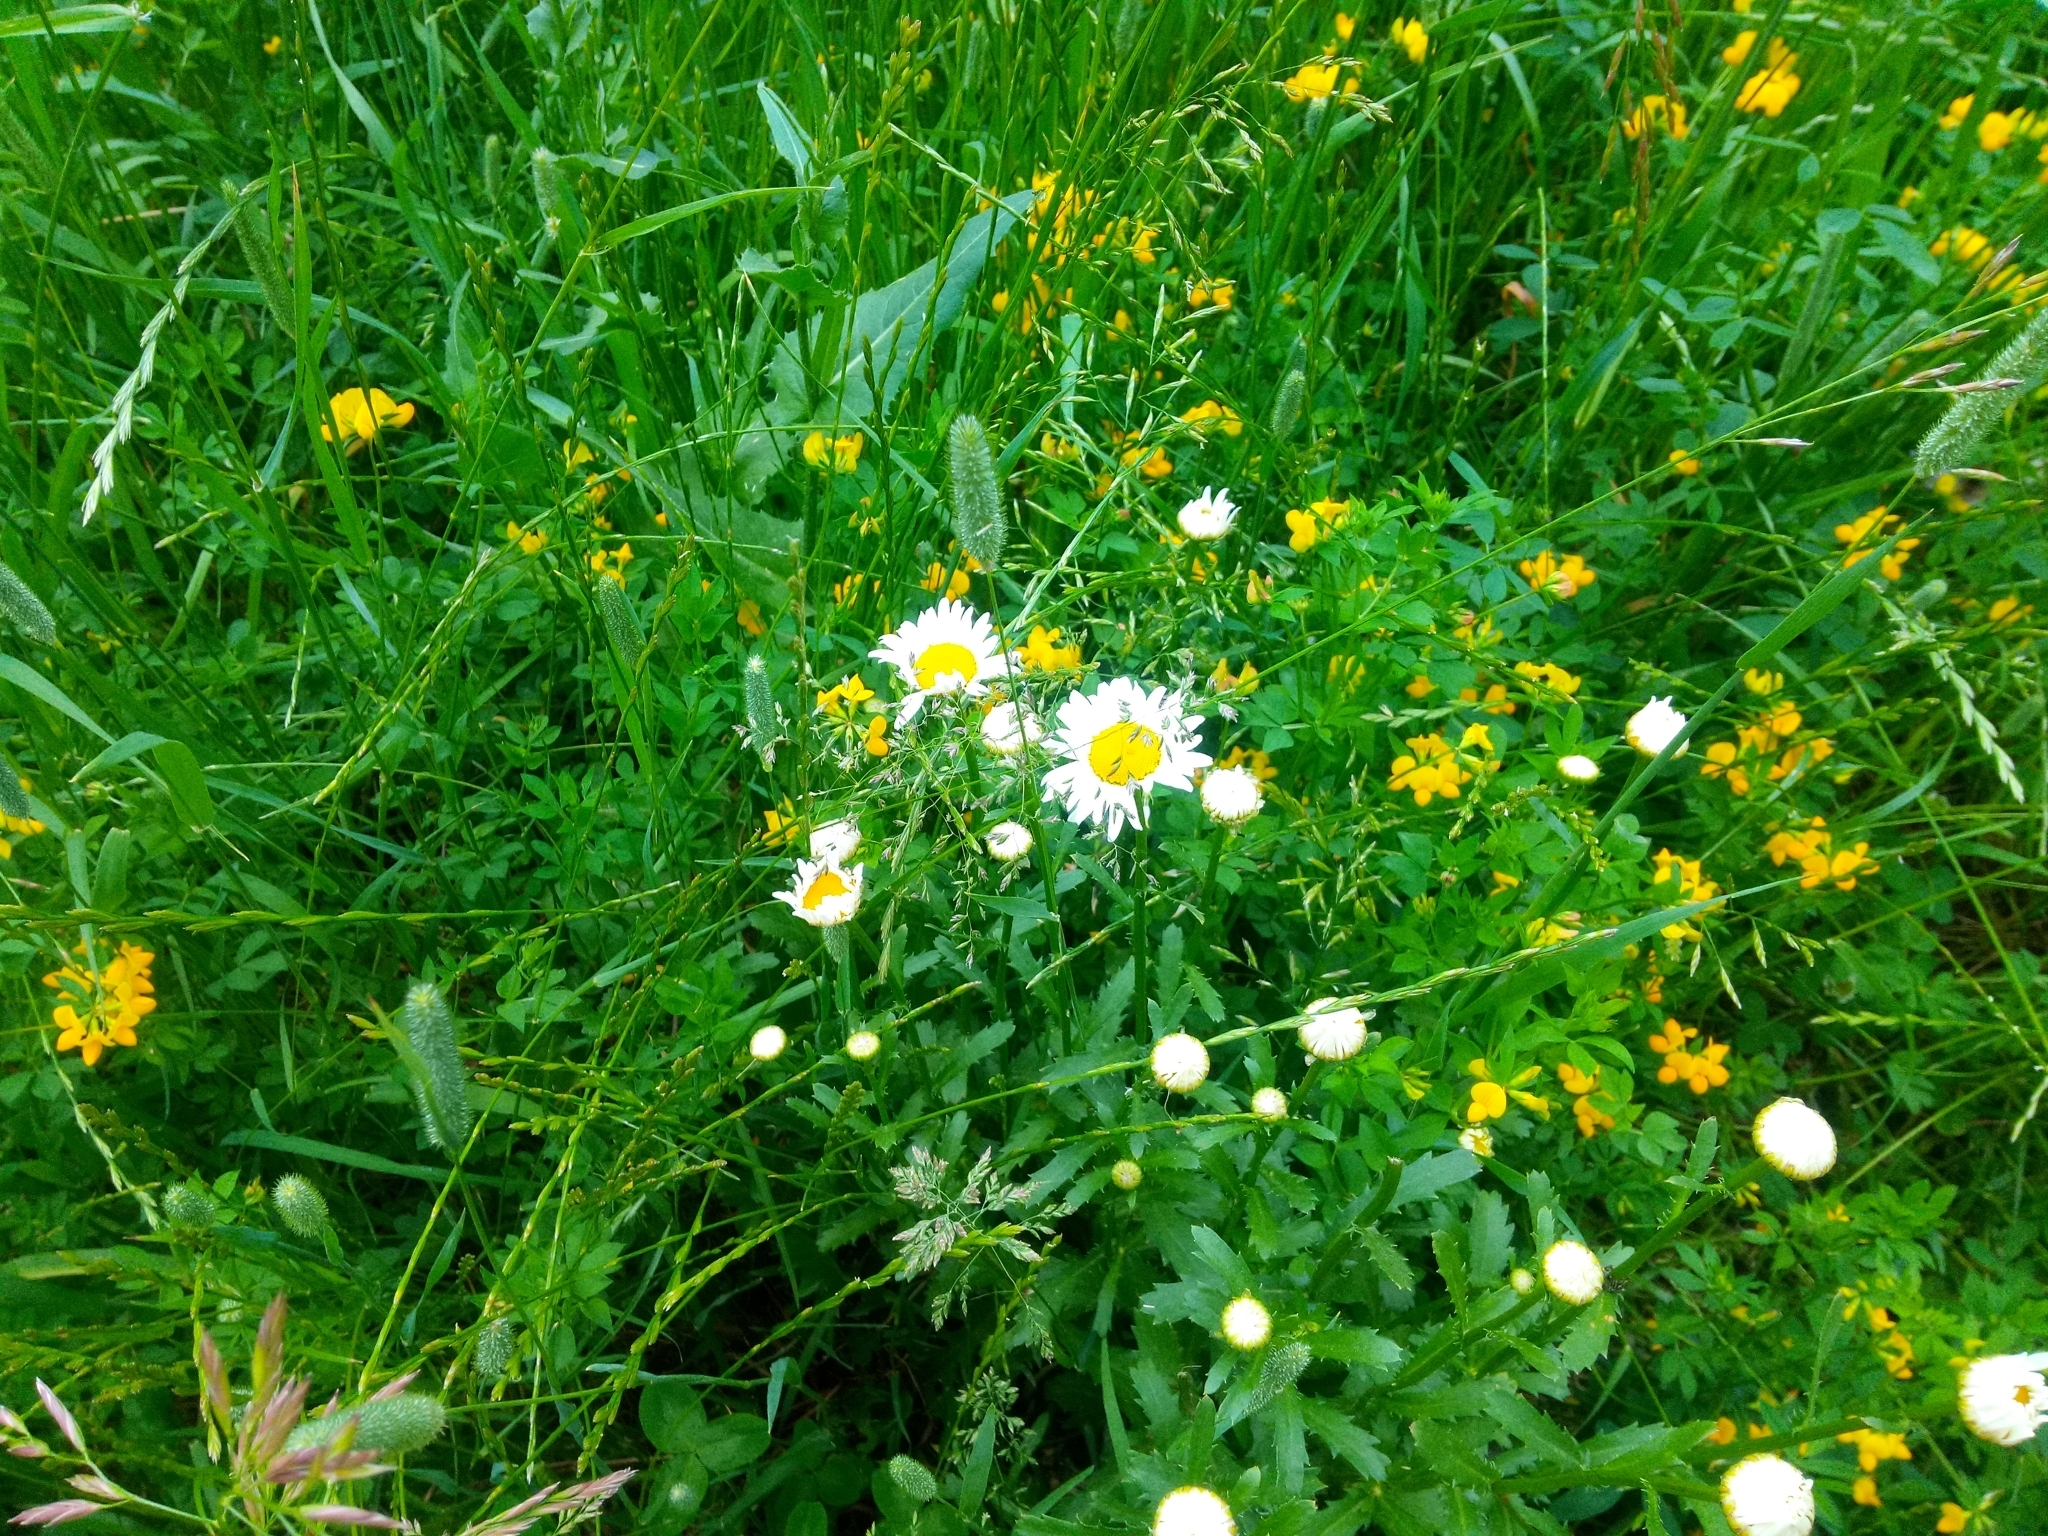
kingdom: Plantae
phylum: Tracheophyta
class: Magnoliopsida
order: Asterales
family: Asteraceae
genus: Leucanthemum
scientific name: Leucanthemum vulgare
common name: Oxeye daisy
